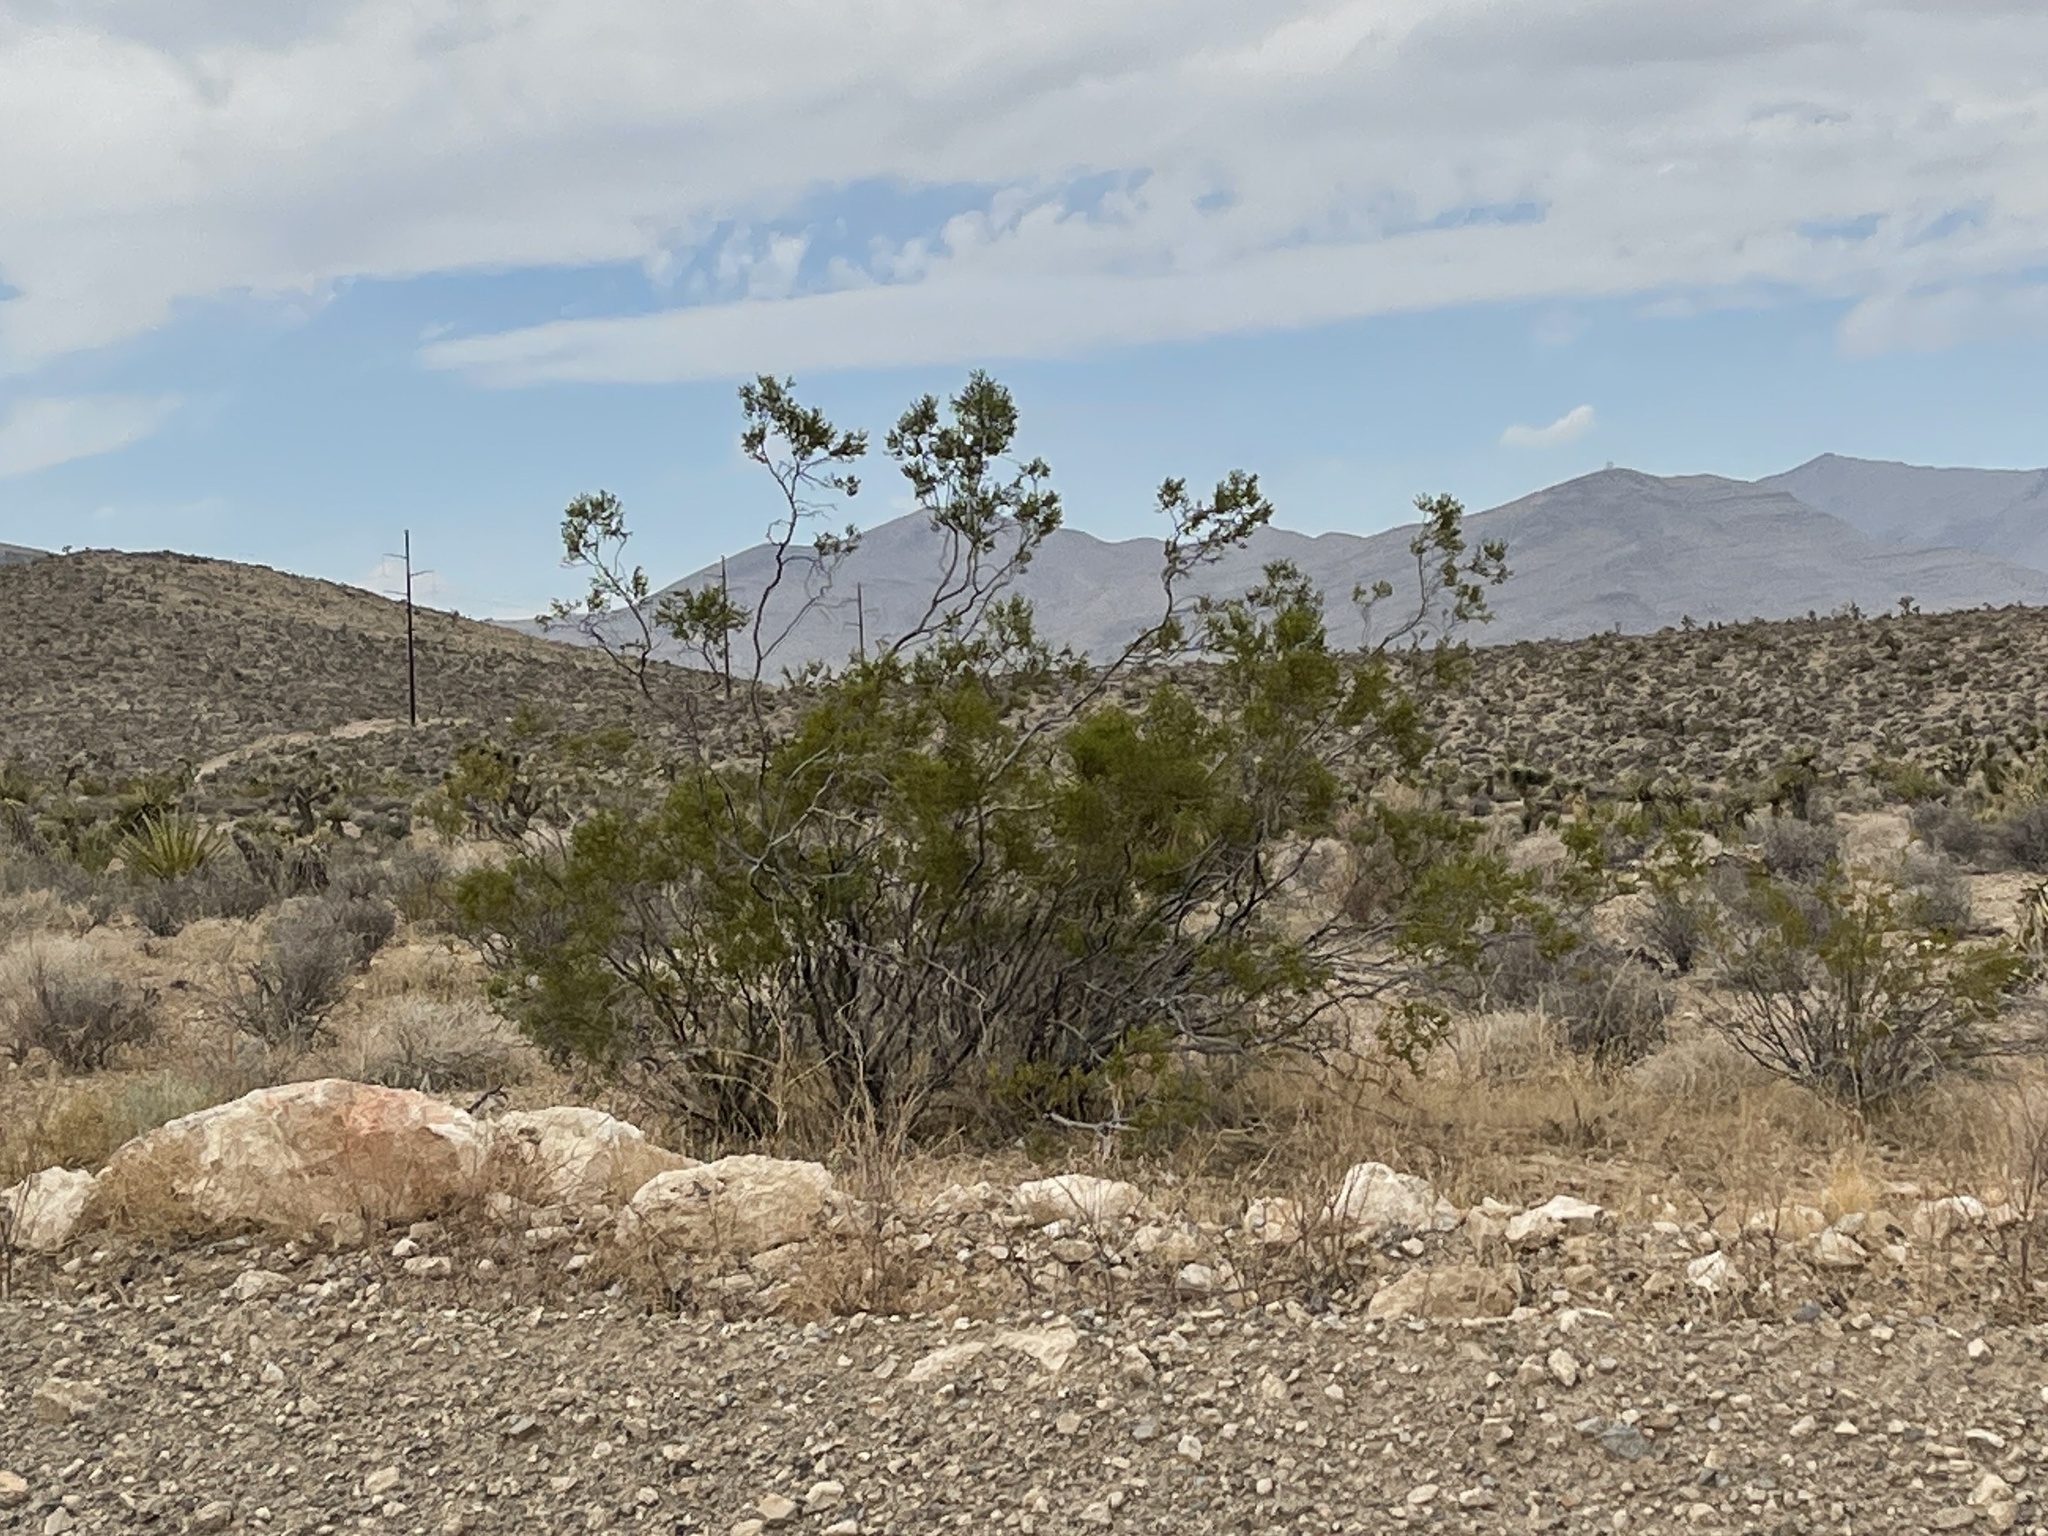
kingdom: Plantae
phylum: Tracheophyta
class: Magnoliopsida
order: Zygophyllales
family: Zygophyllaceae
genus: Larrea
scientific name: Larrea tridentata
